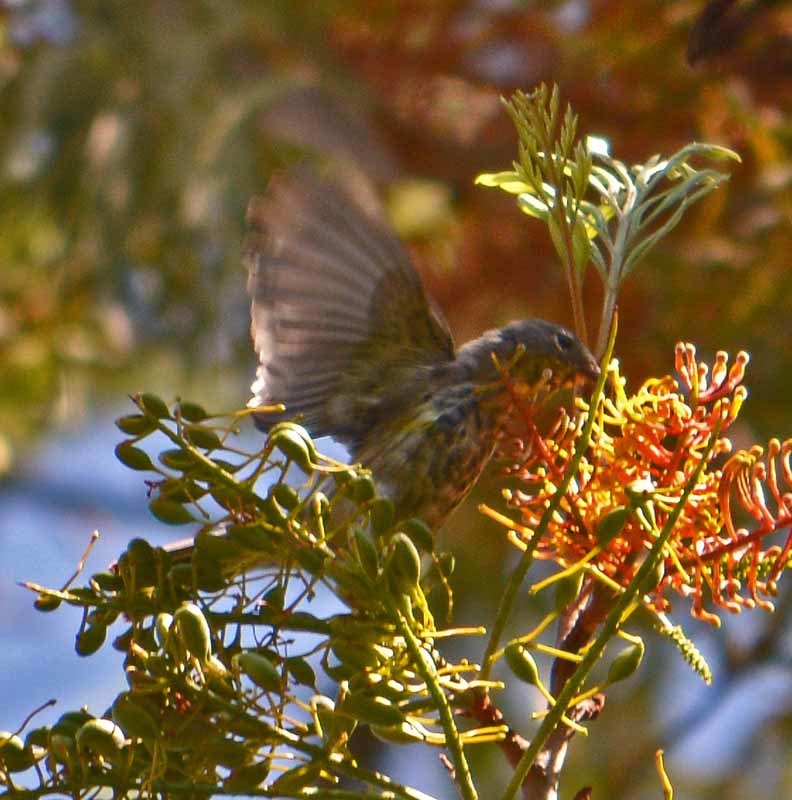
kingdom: Animalia
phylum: Chordata
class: Aves
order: Passeriformes
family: Parulidae
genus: Setophaga
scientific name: Setophaga coronata
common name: Myrtle warbler
